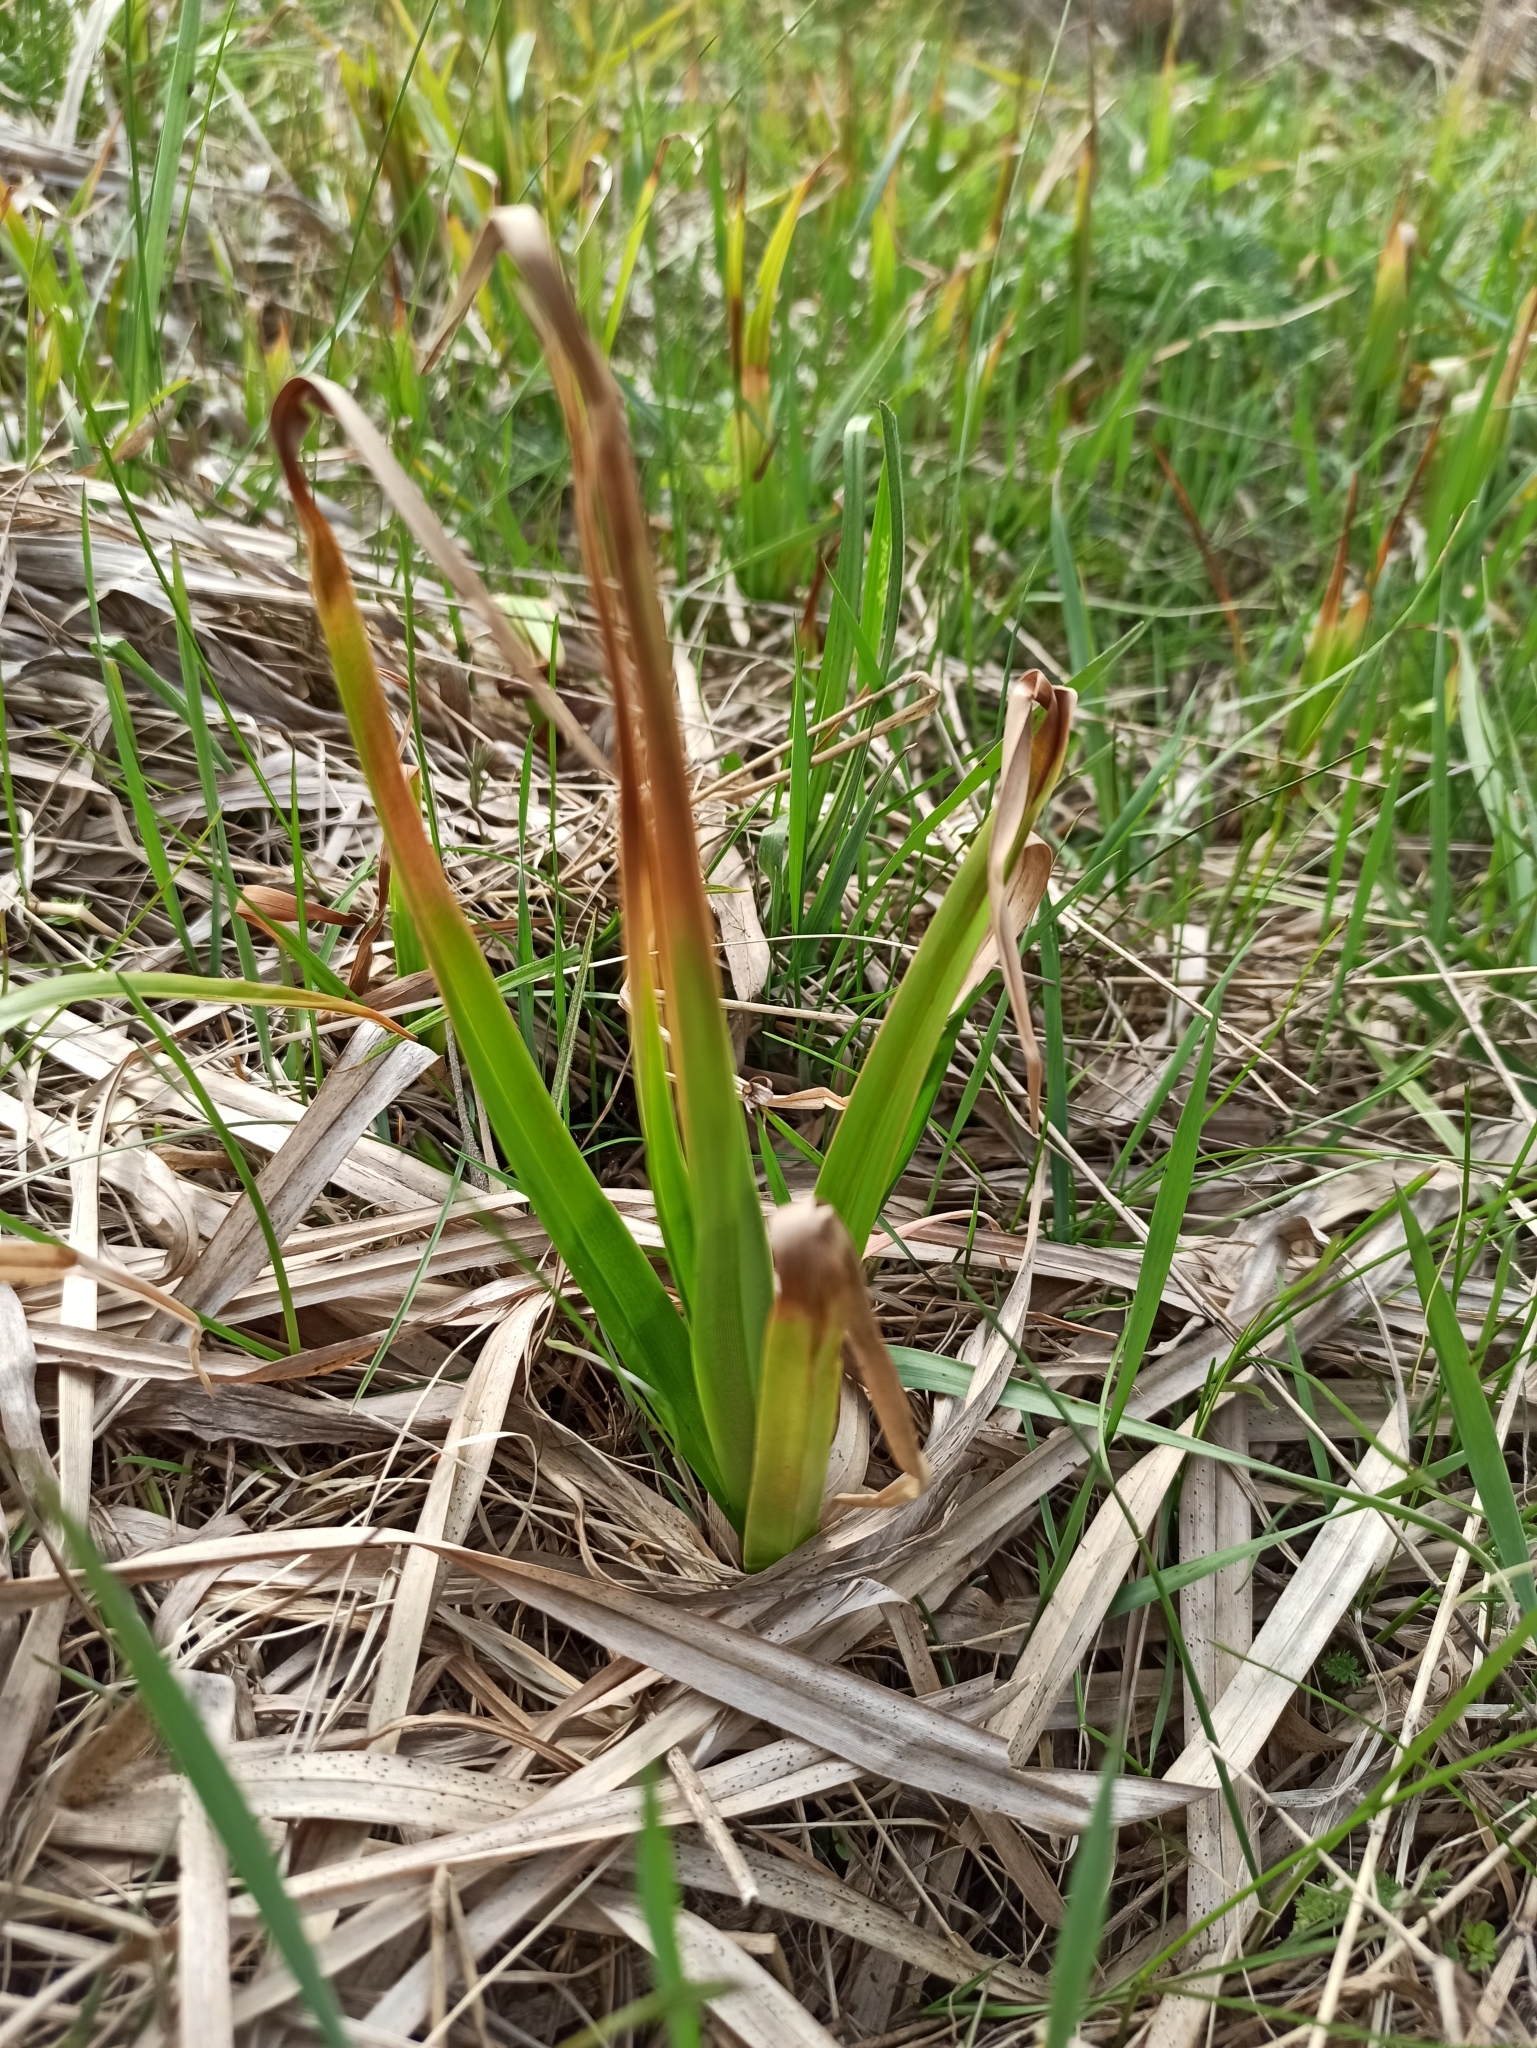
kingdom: Plantae
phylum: Tracheophyta
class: Liliopsida
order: Poales
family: Cyperaceae
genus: Scirpus
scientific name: Scirpus sylvaticus
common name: Wood club-rush
